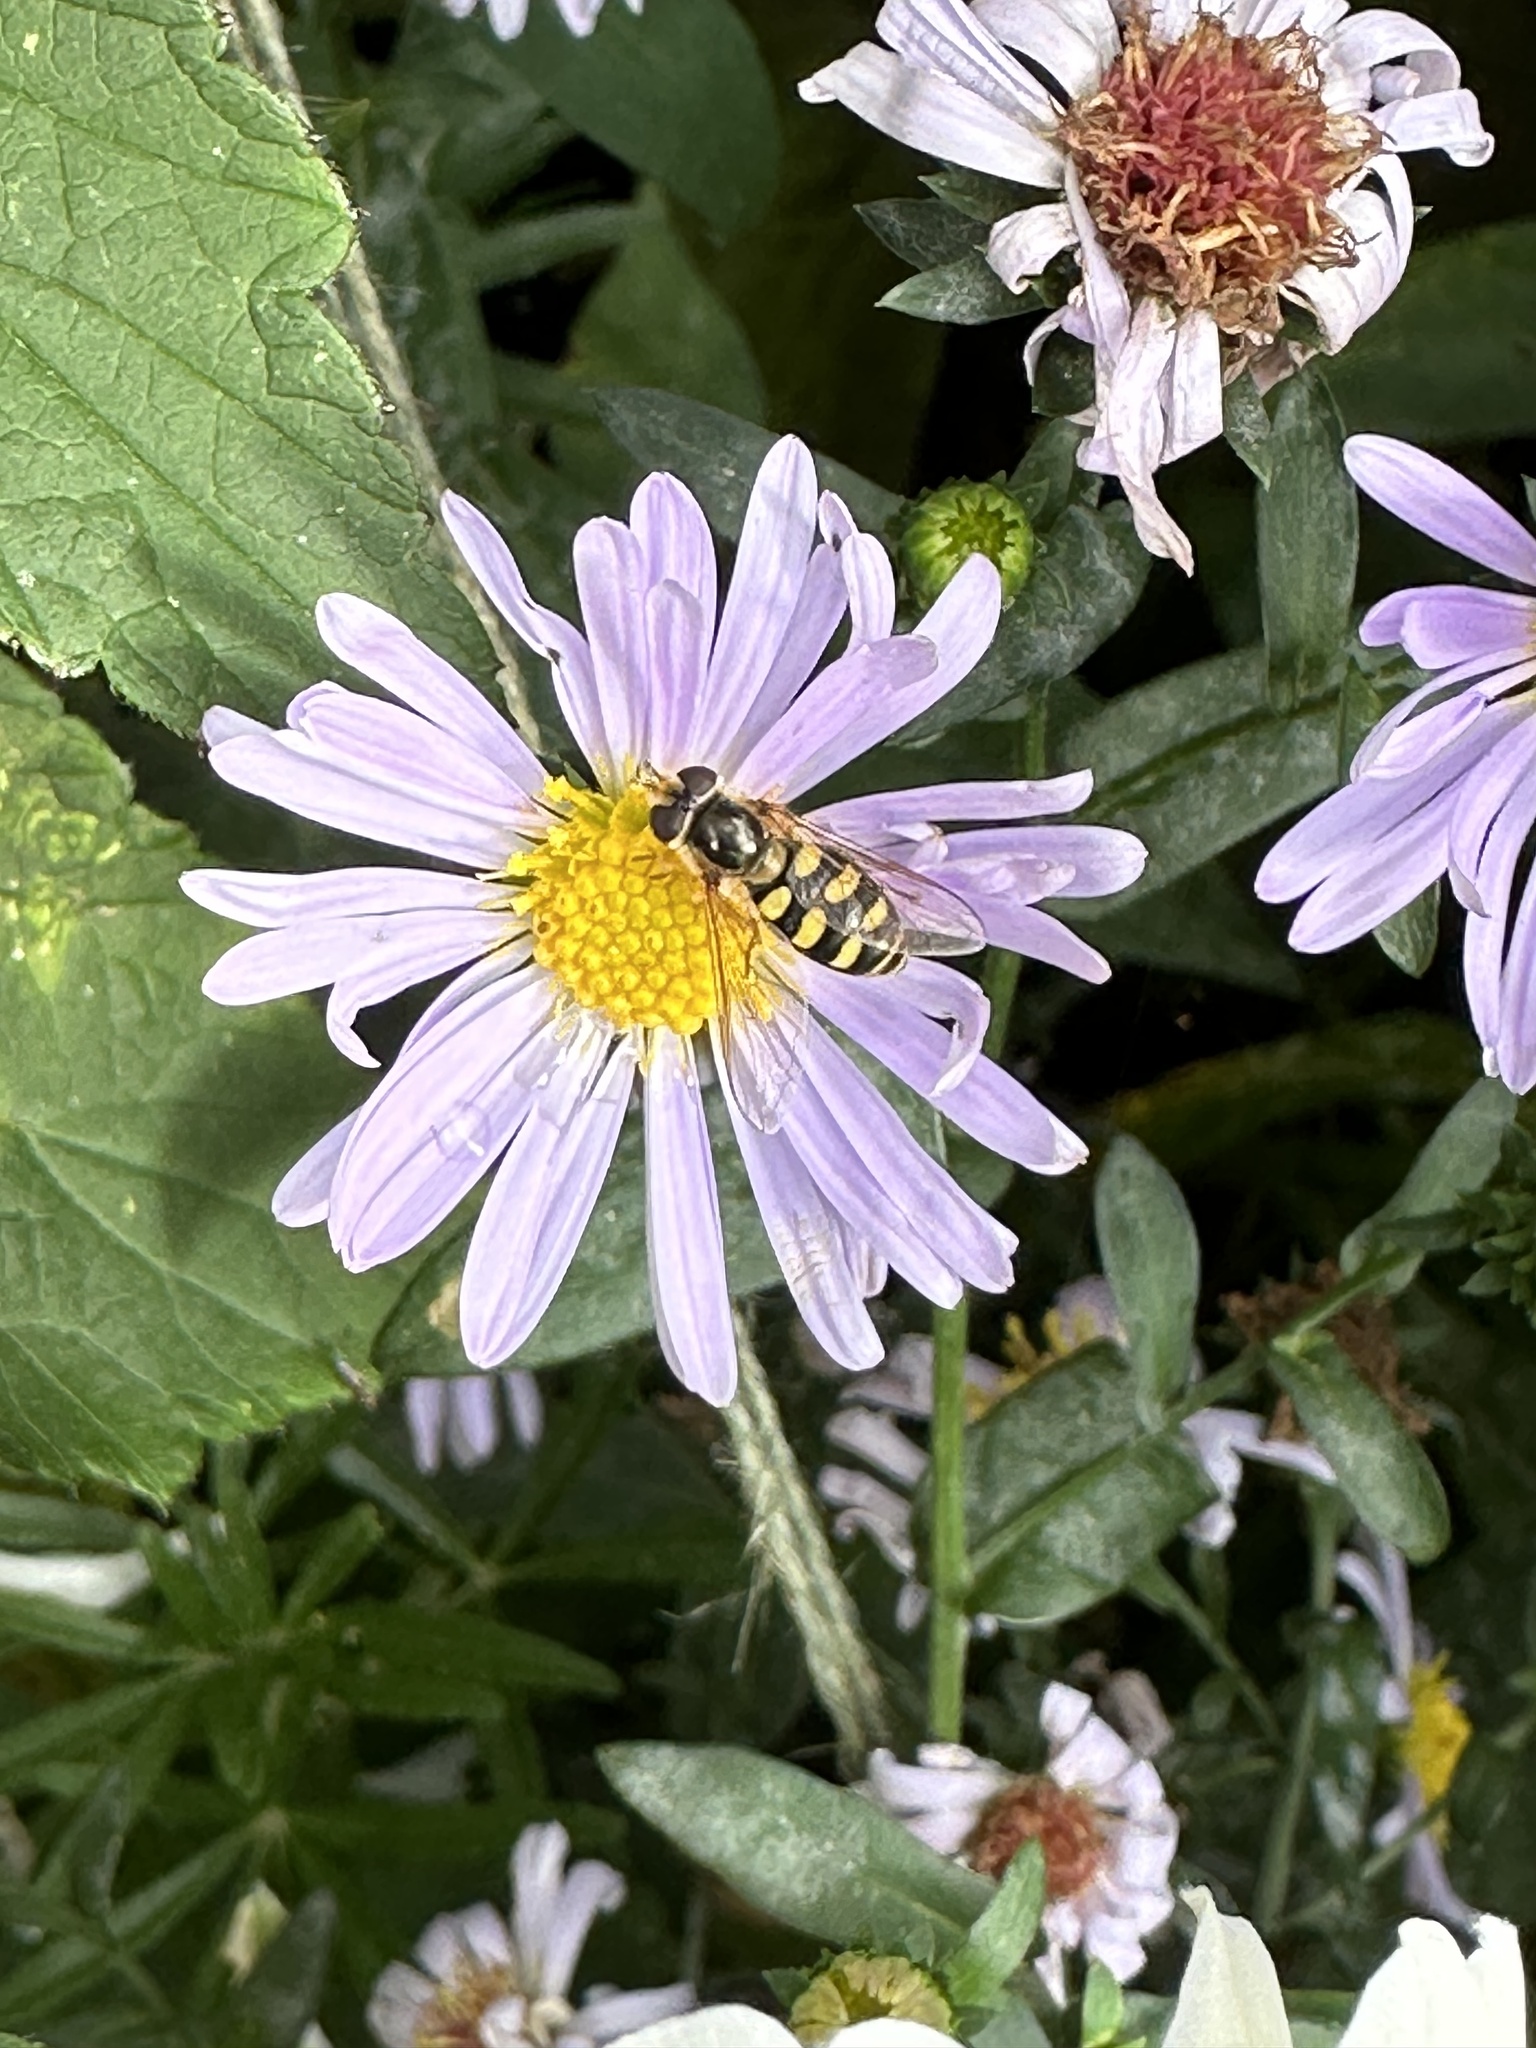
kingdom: Animalia
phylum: Arthropoda
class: Insecta
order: Diptera
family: Syrphidae
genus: Eupeodes
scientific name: Eupeodes luniger
